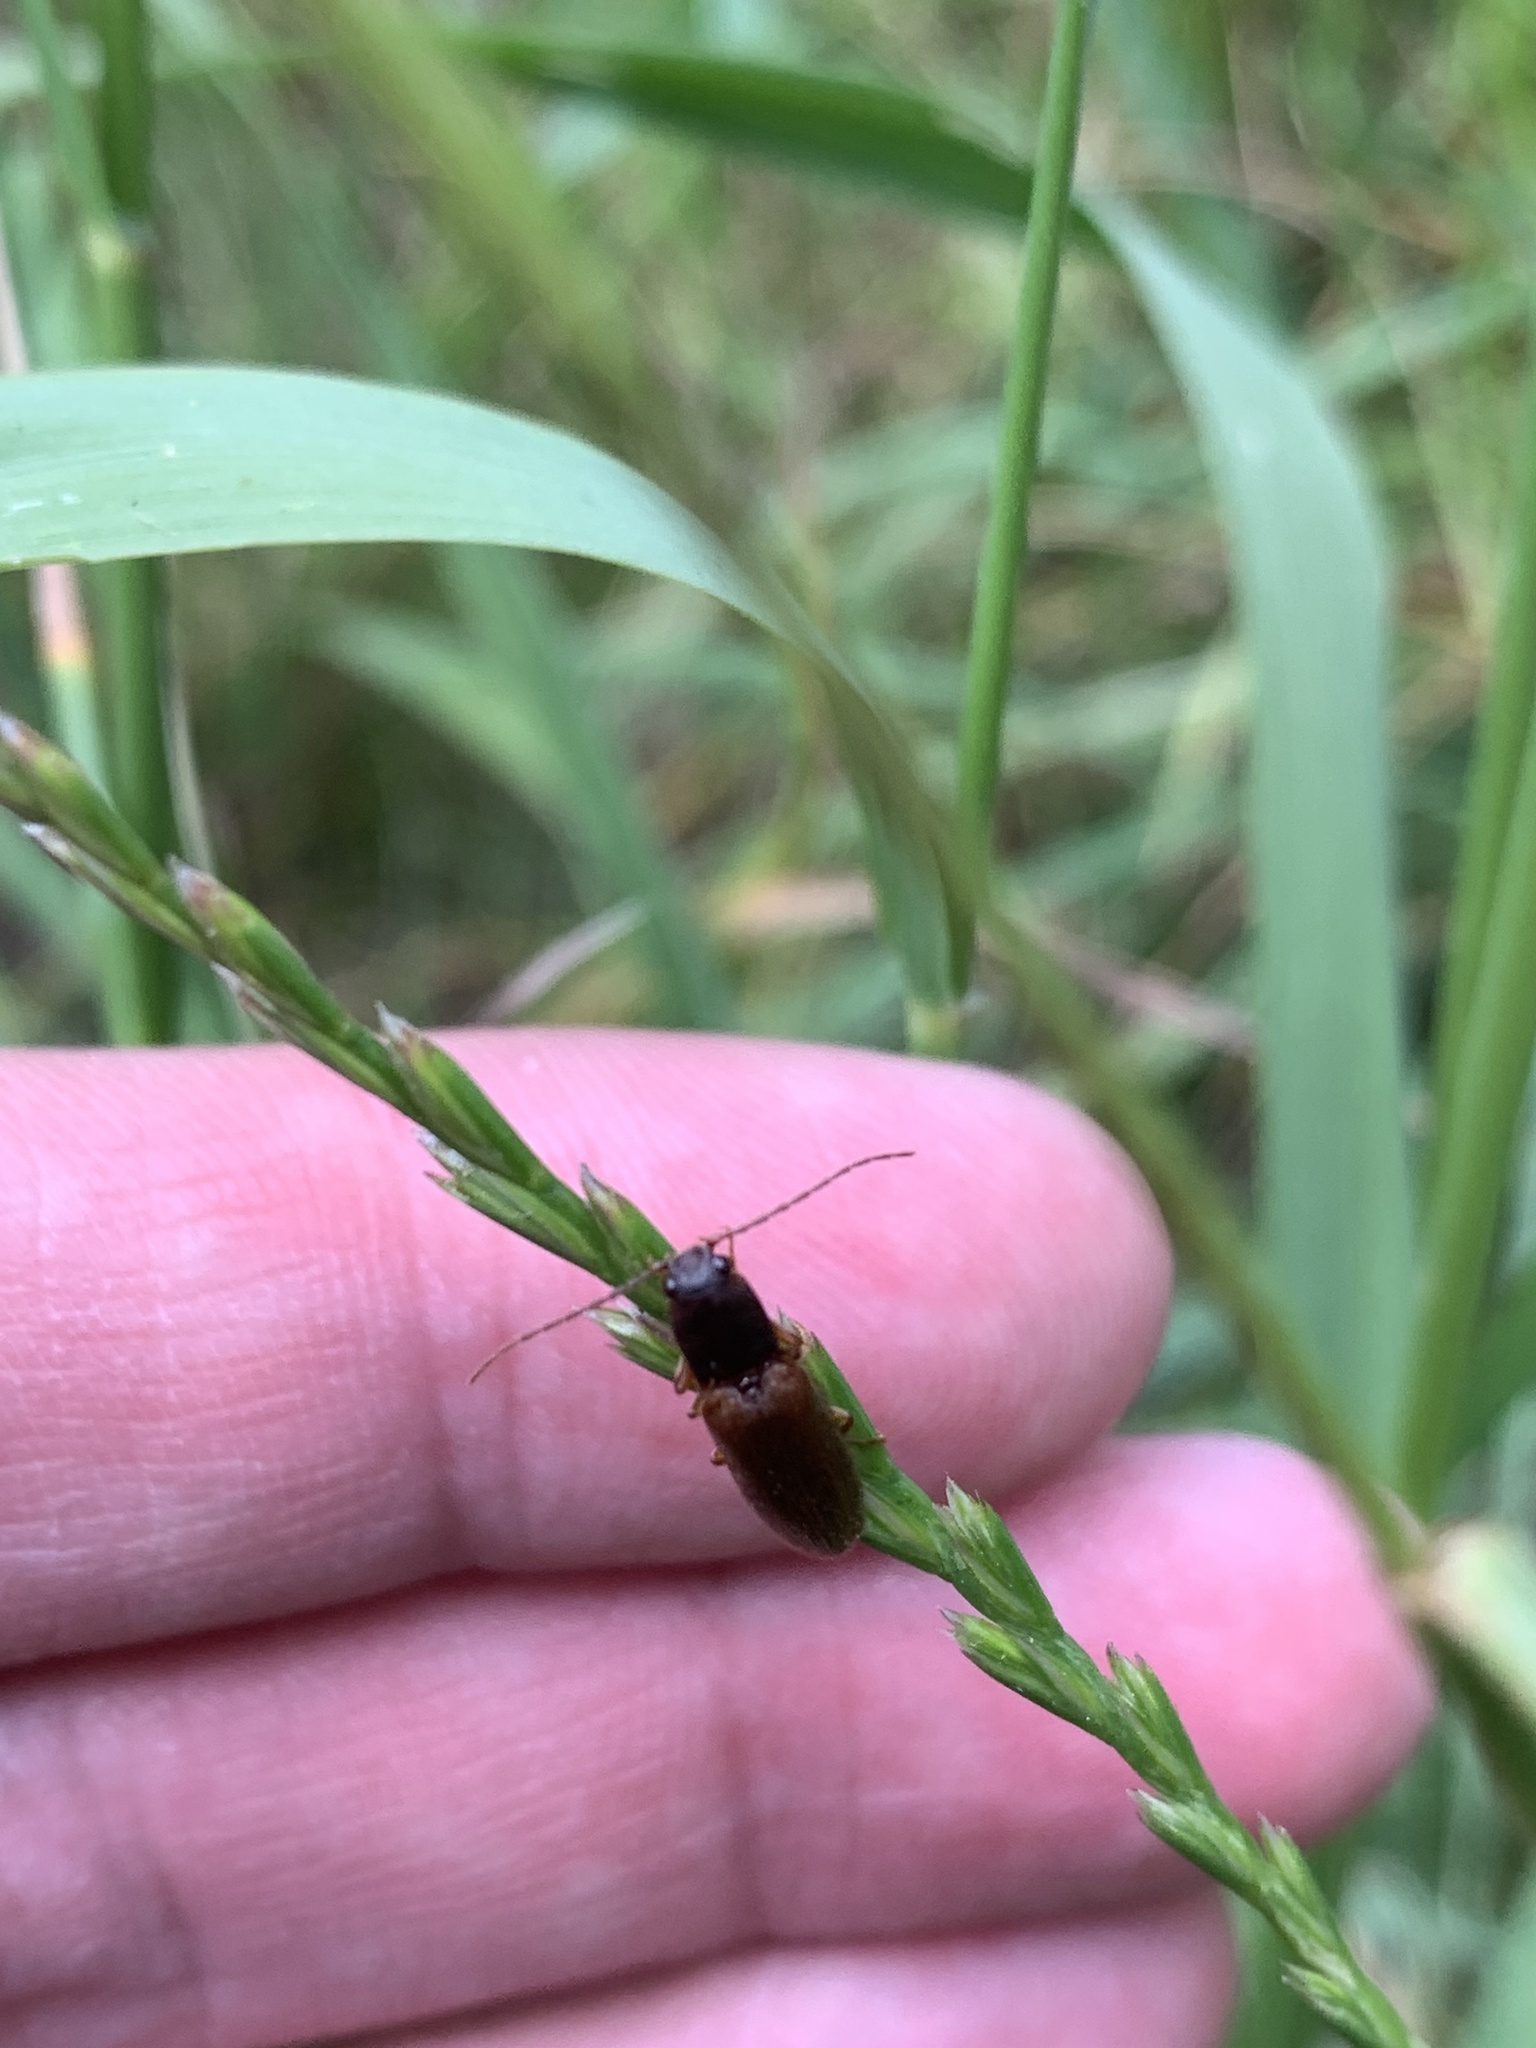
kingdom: Animalia
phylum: Arthropoda
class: Insecta
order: Coleoptera
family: Elateridae
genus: Athous
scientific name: Athous campyloides
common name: Curved click beetle
